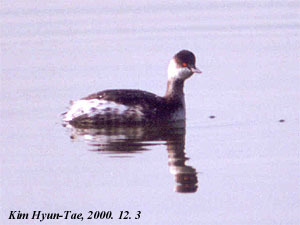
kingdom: Animalia
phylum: Chordata
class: Aves
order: Podicipediformes
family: Podicipedidae
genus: Podiceps
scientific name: Podiceps nigricollis
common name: Black-necked grebe
